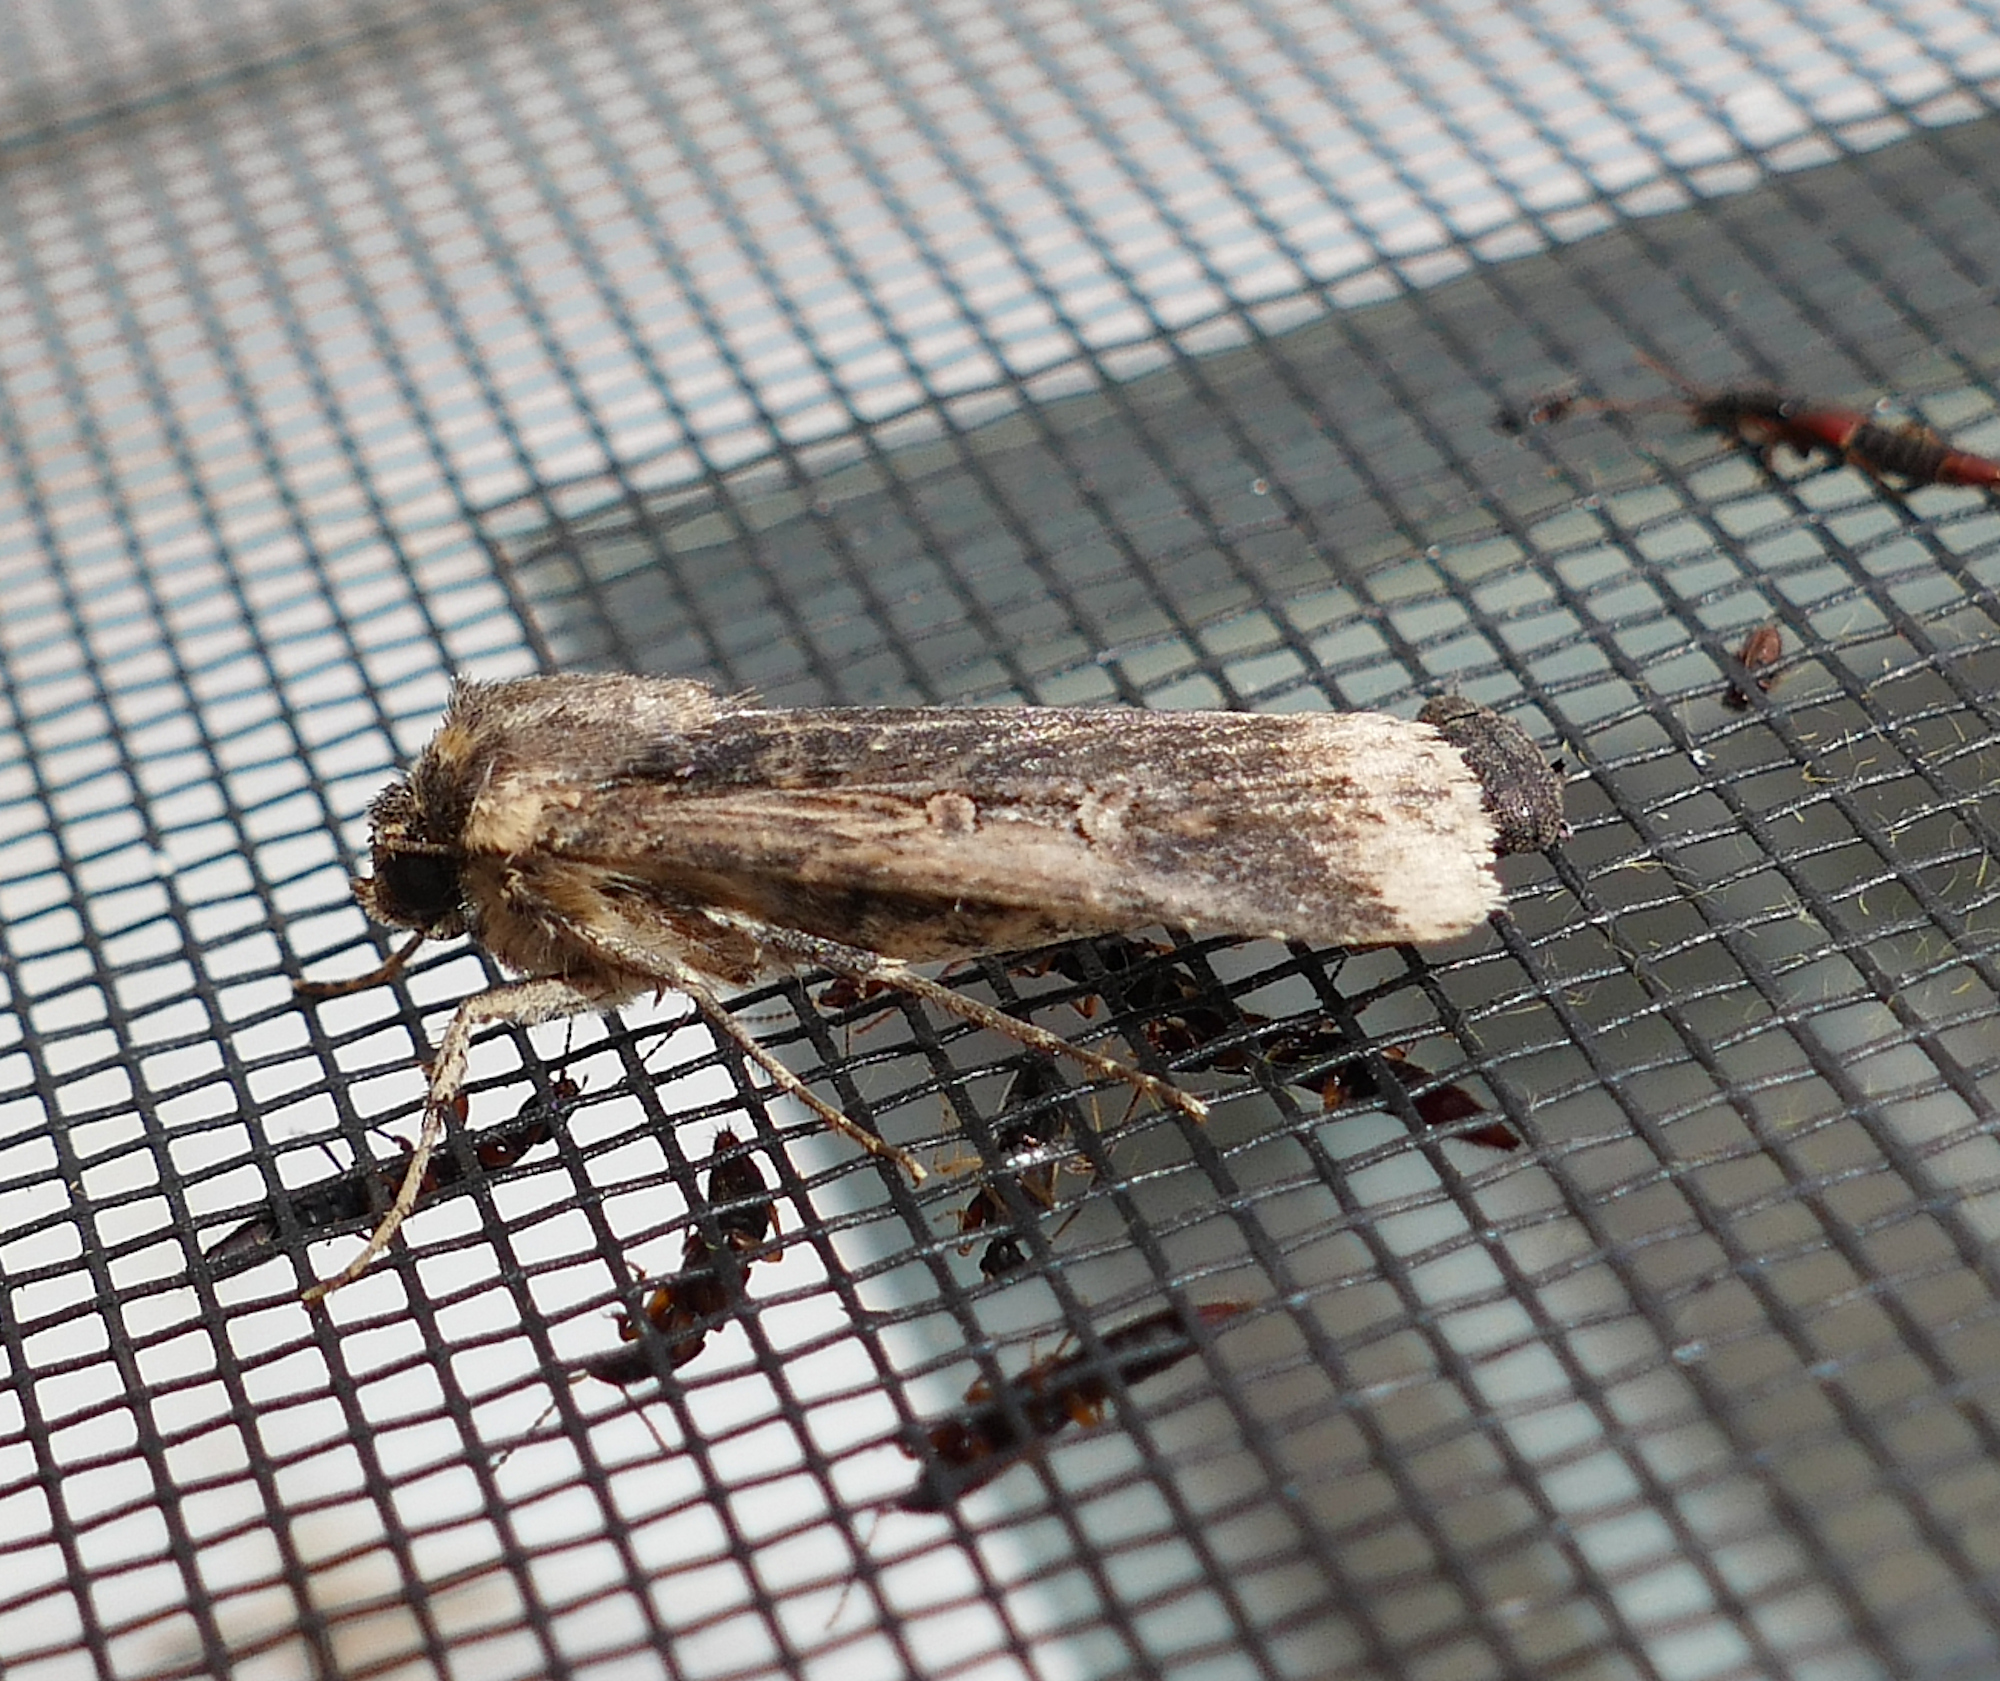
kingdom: Animalia
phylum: Arthropoda
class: Insecta
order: Lepidoptera
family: Noctuidae
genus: Feltia
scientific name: Feltia subterranea
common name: Granulate cutworm
